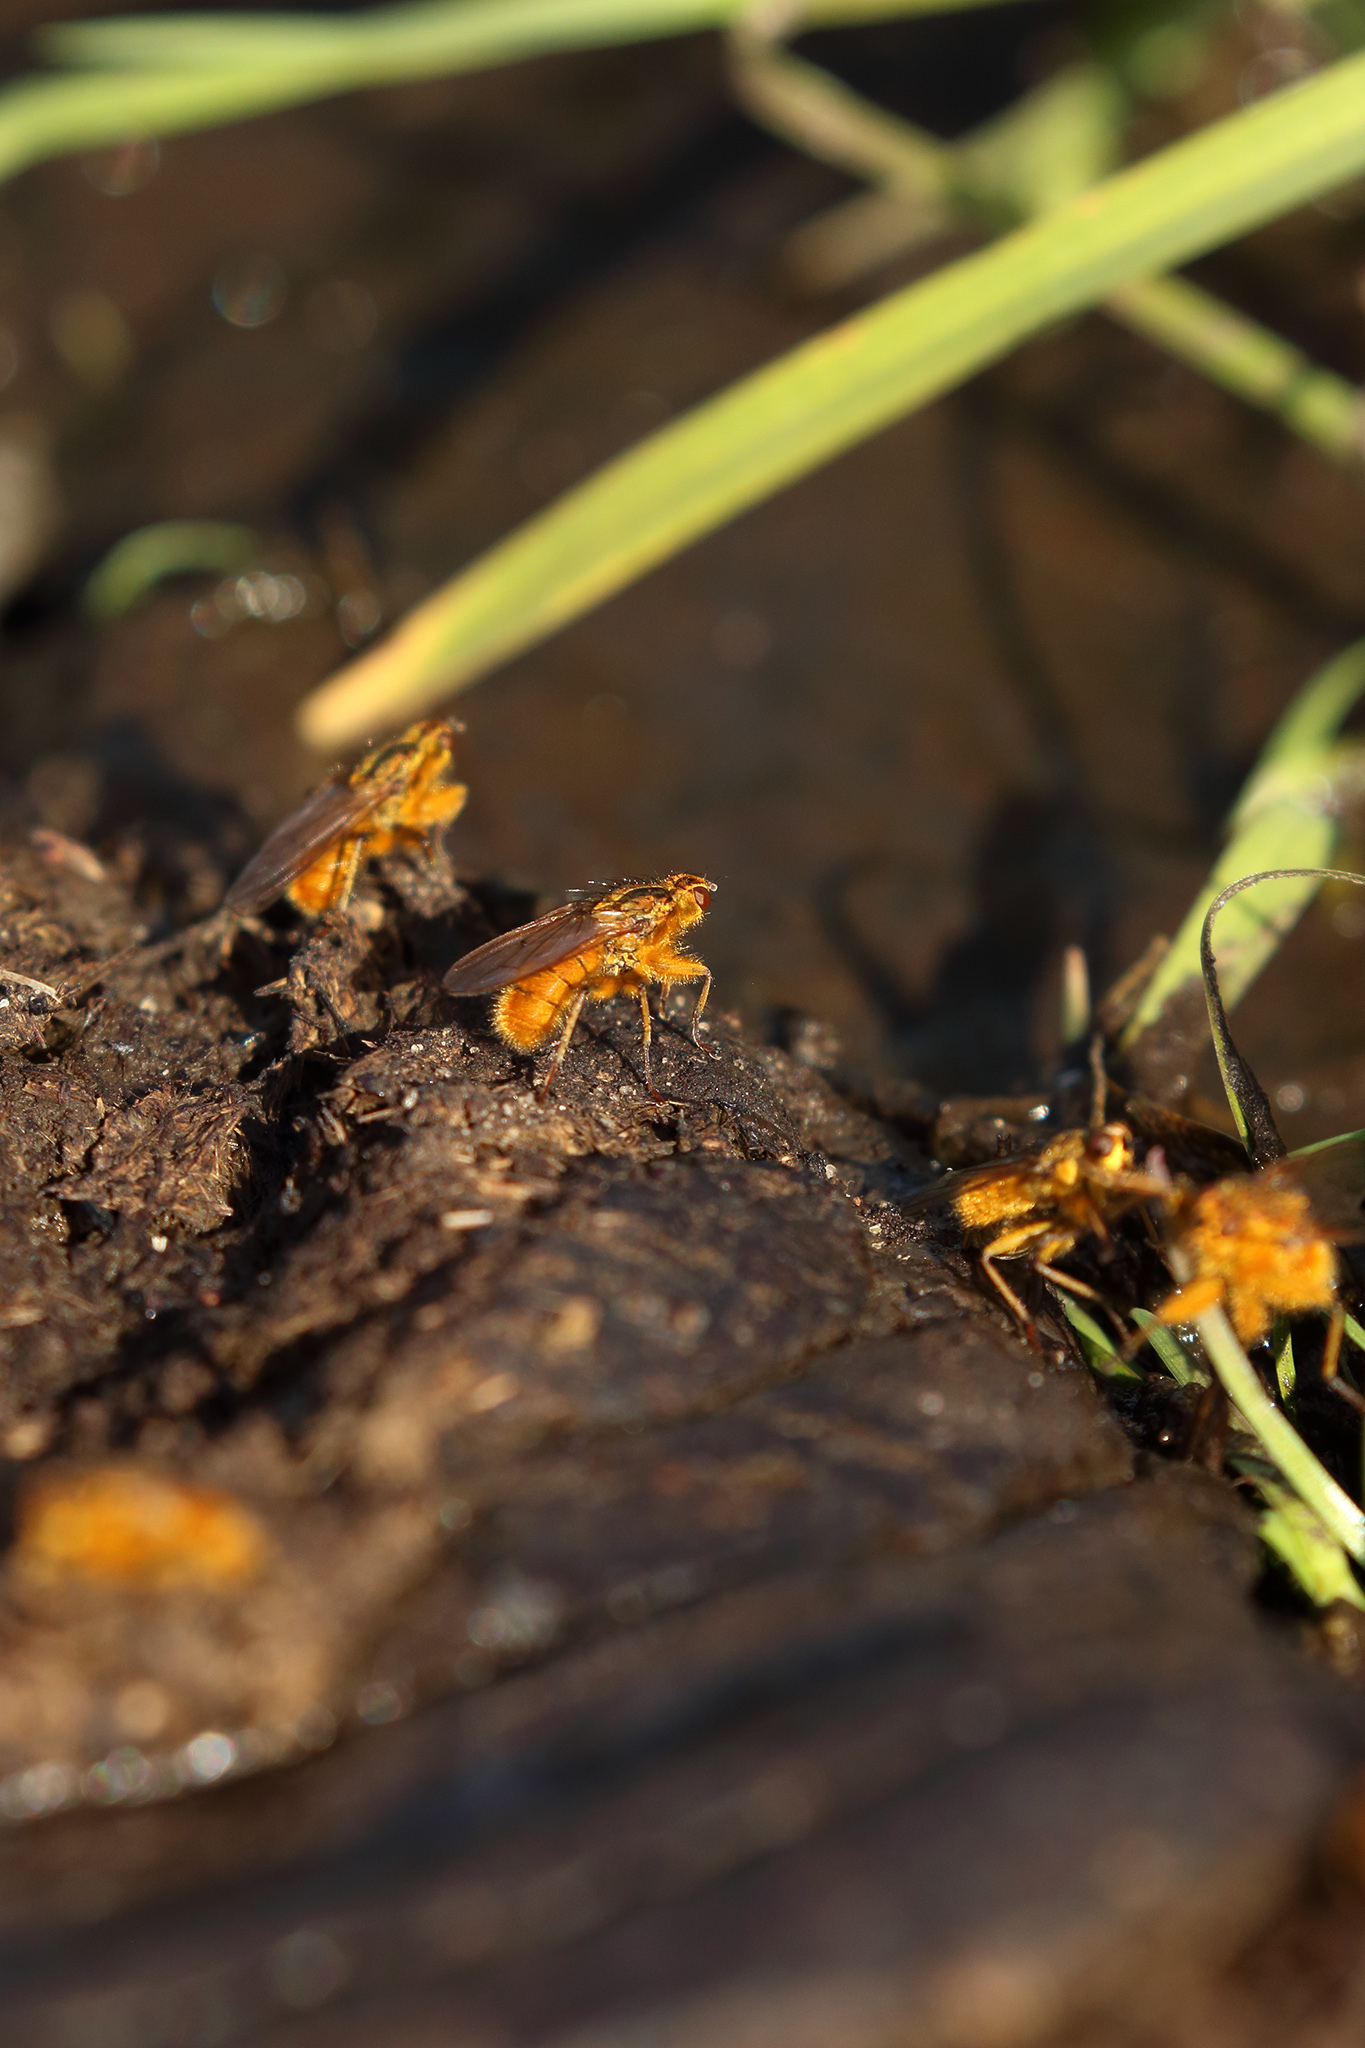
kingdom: Animalia
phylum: Arthropoda
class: Insecta
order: Diptera
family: Scathophagidae
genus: Scathophaga
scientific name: Scathophaga stercoraria
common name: Yellow dung fly
